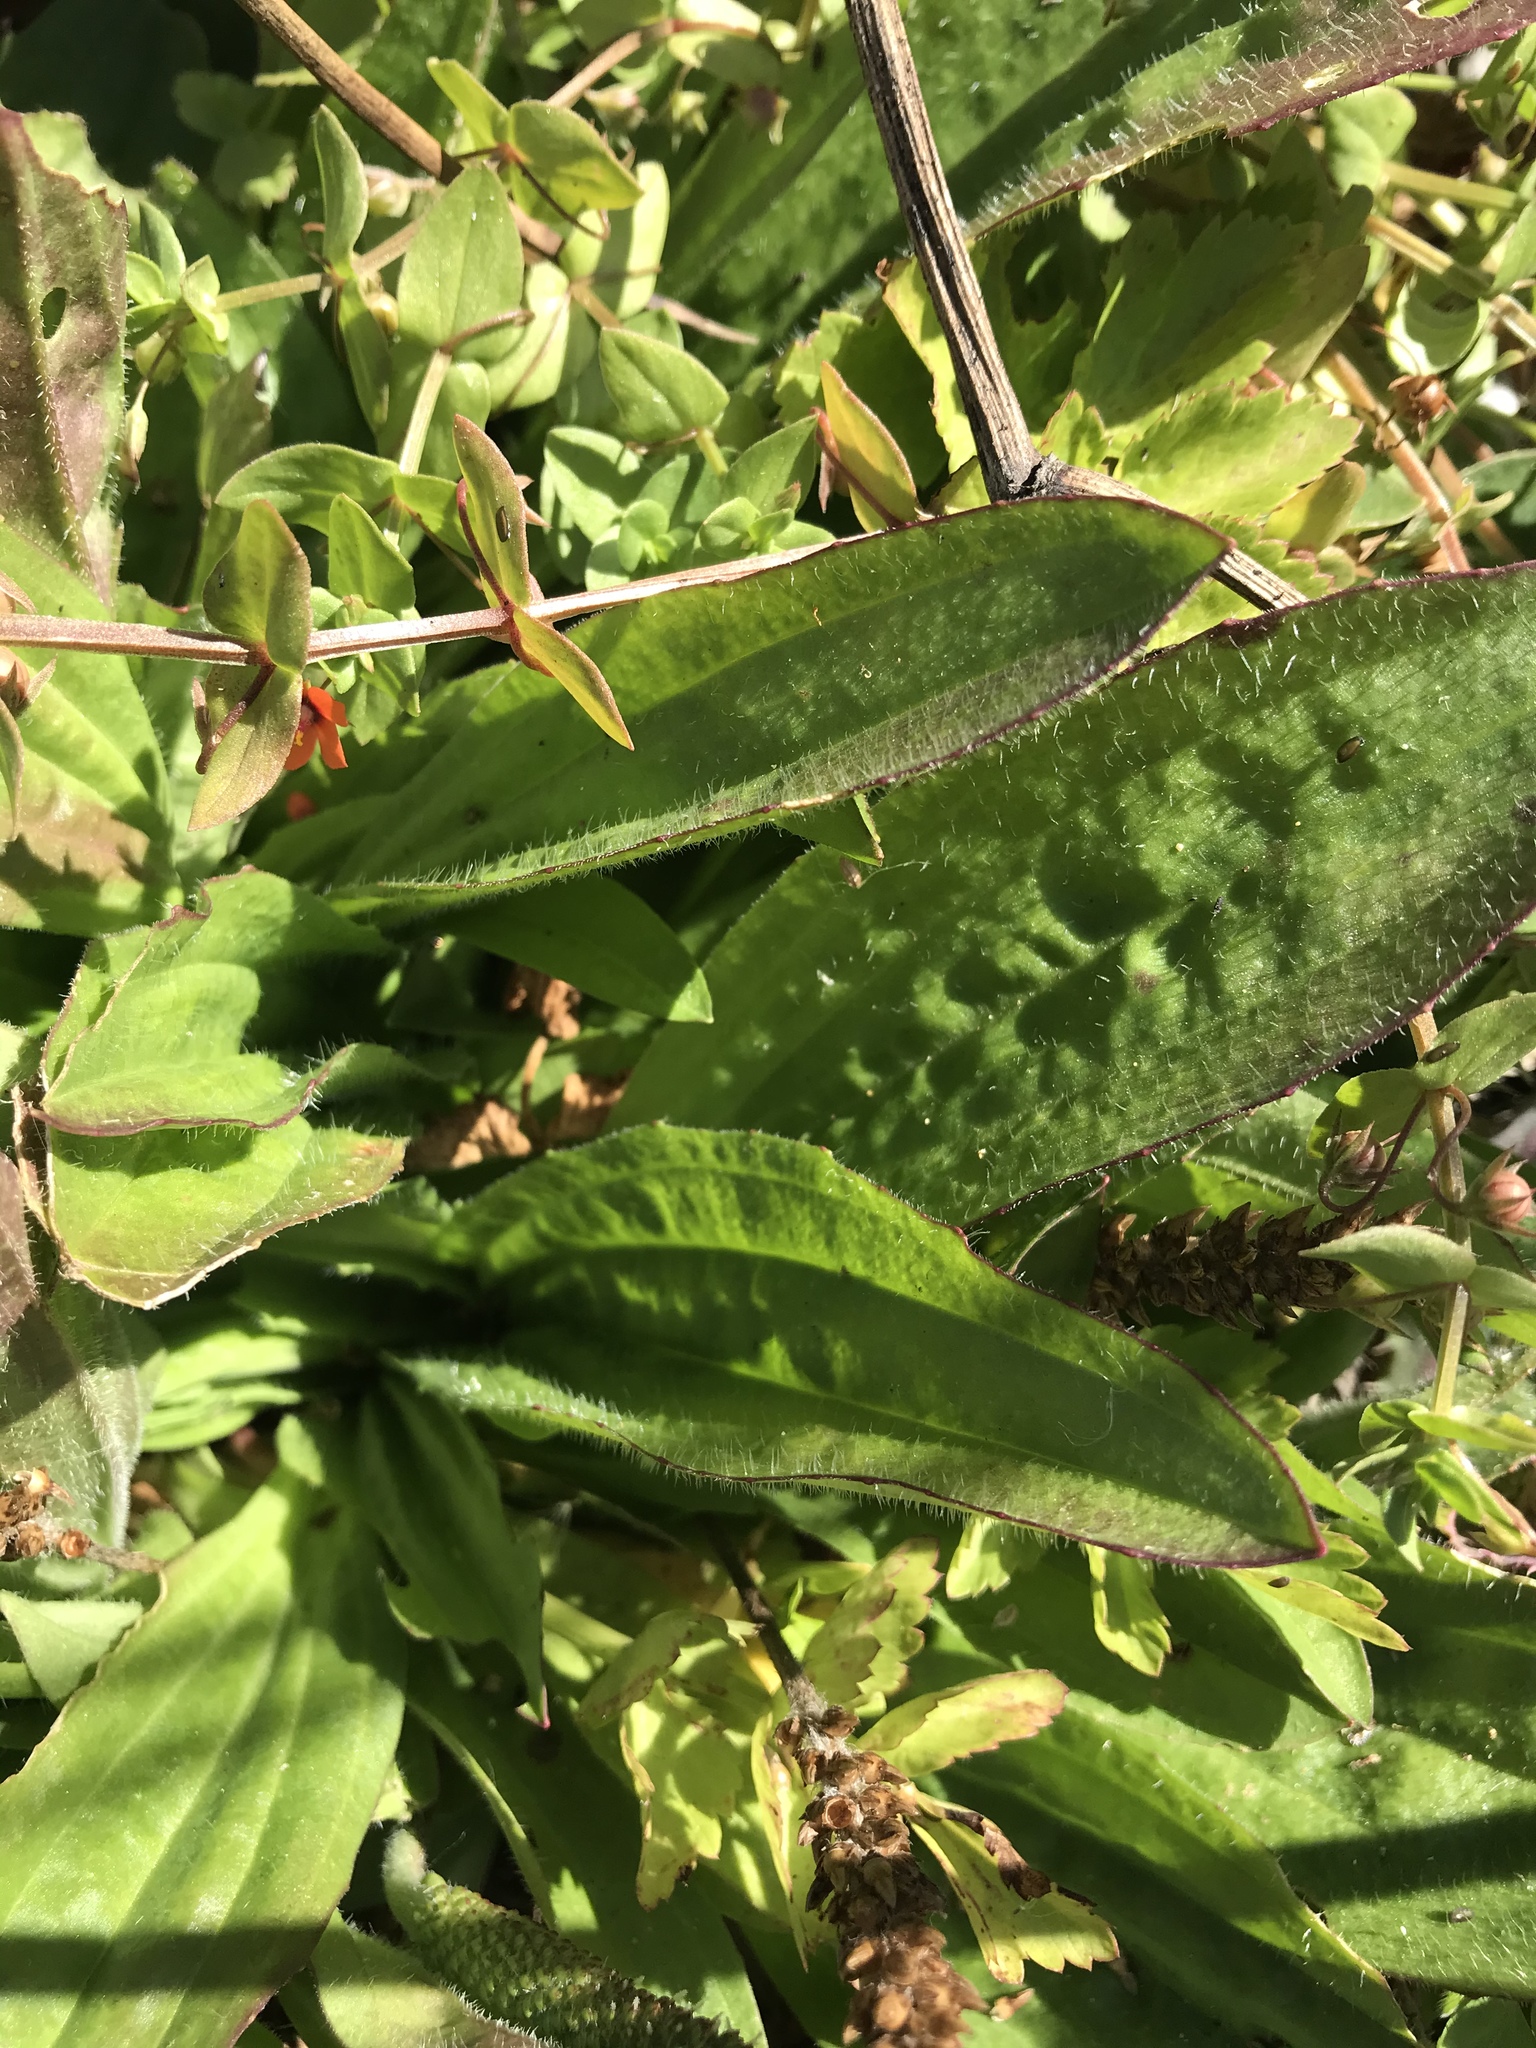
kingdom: Plantae
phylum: Tracheophyta
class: Magnoliopsida
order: Lamiales
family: Plantaginaceae
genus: Plantago
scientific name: Plantago subnuda
